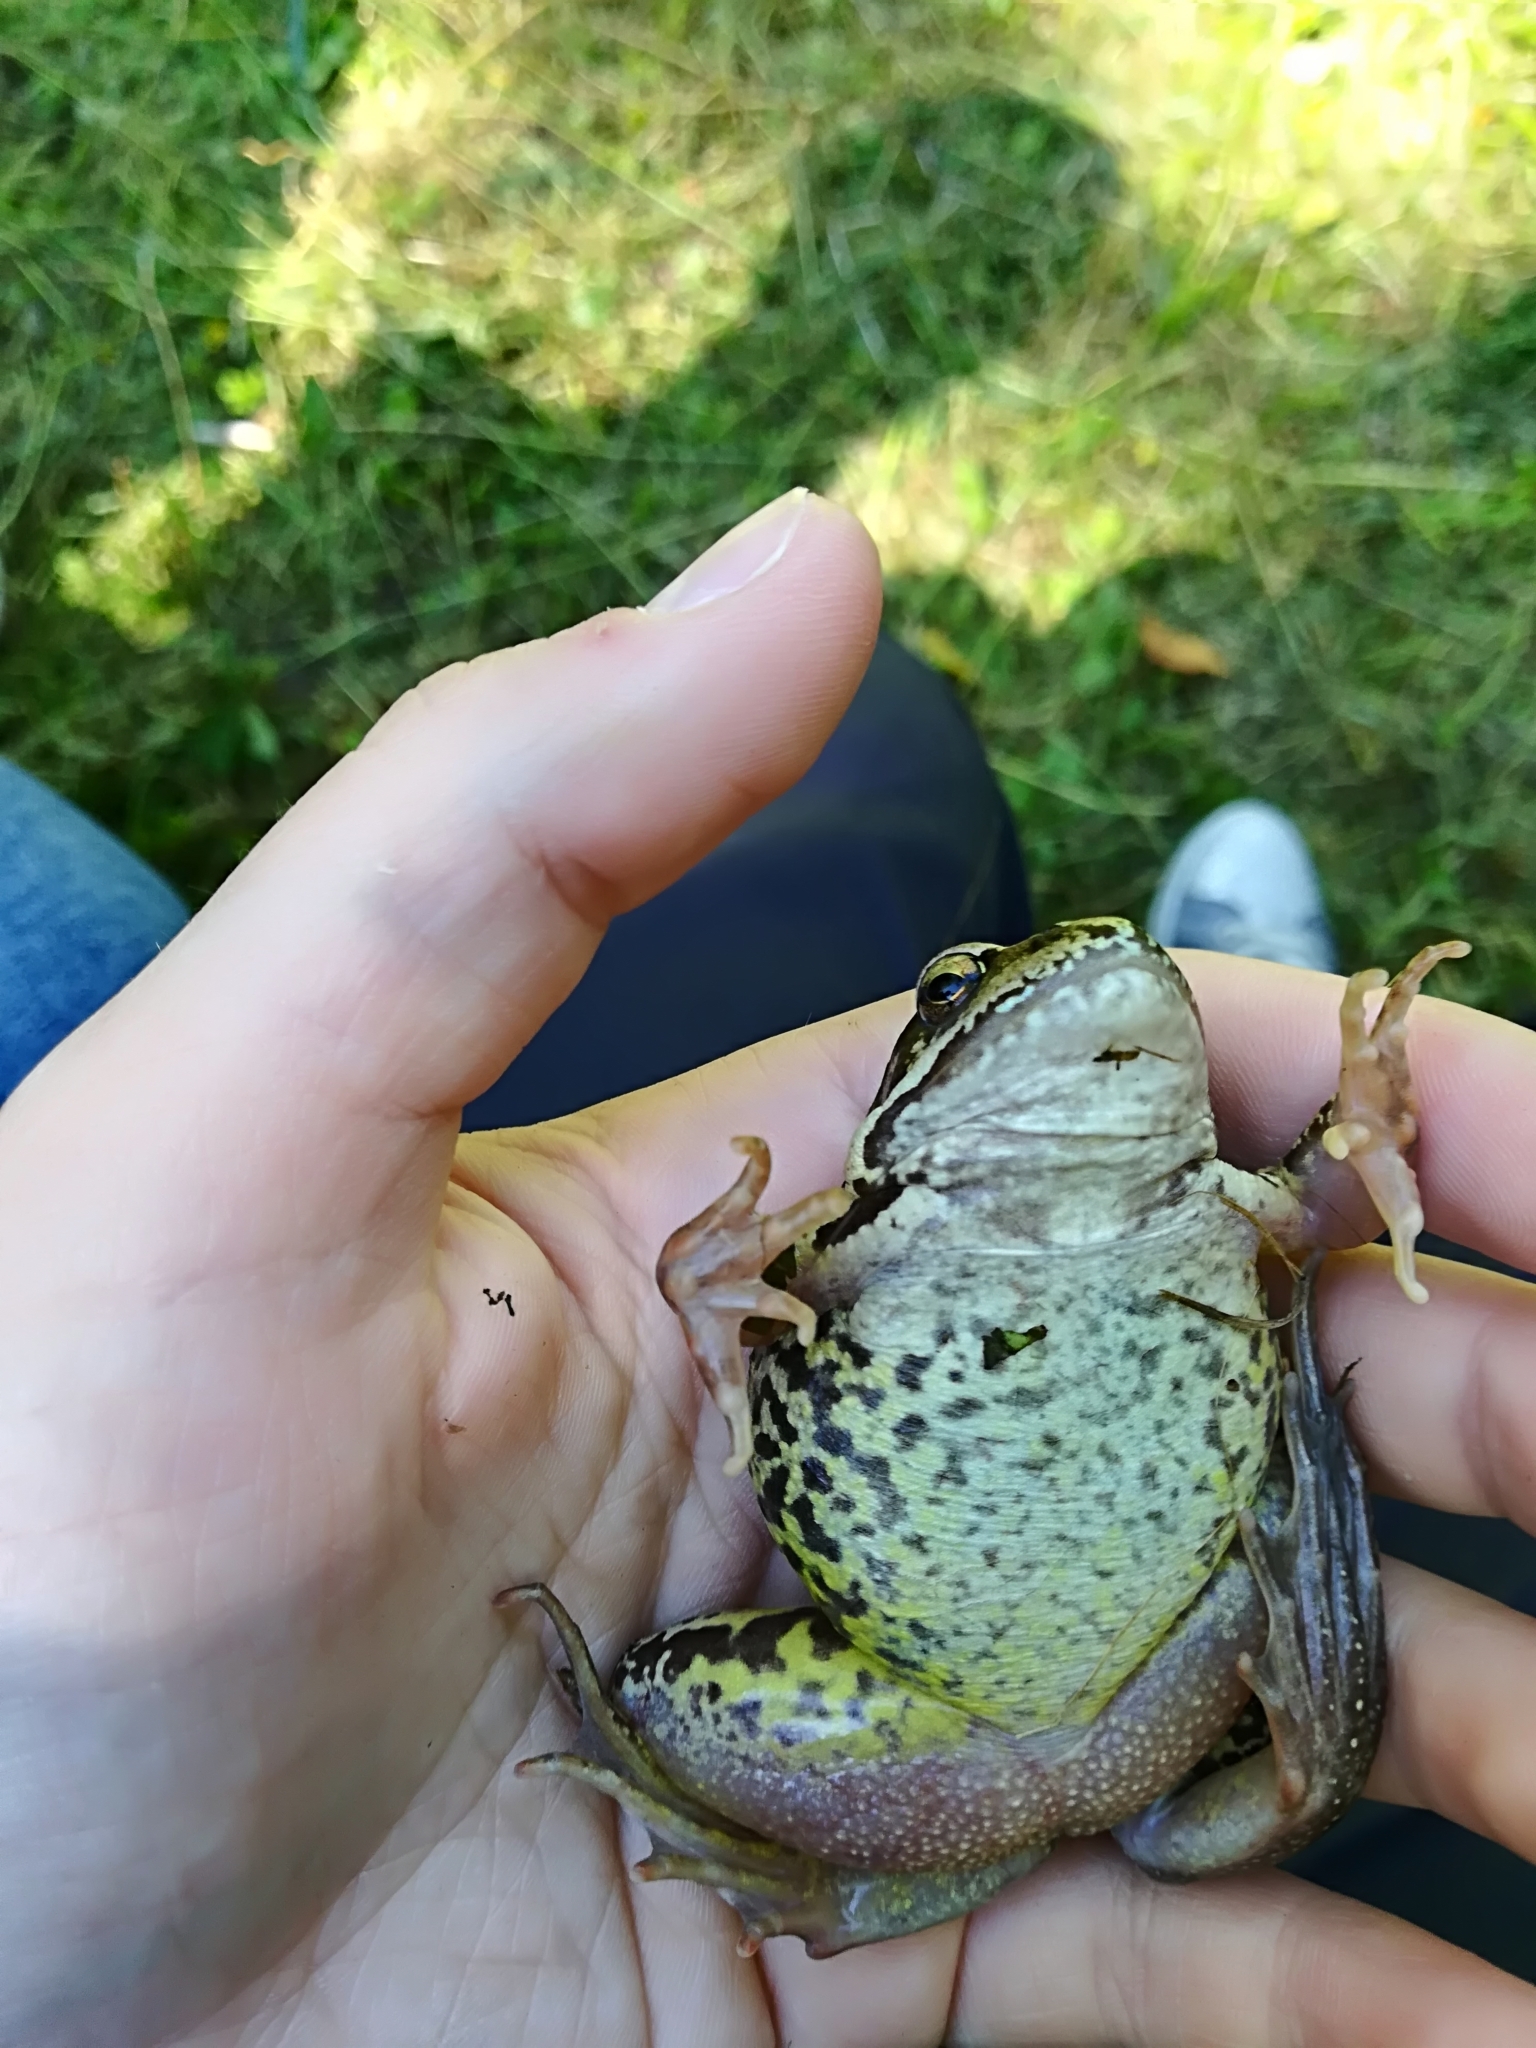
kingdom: Animalia
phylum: Chordata
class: Amphibia
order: Anura
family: Ranidae
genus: Rana
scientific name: Rana temporaria
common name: Common frog
